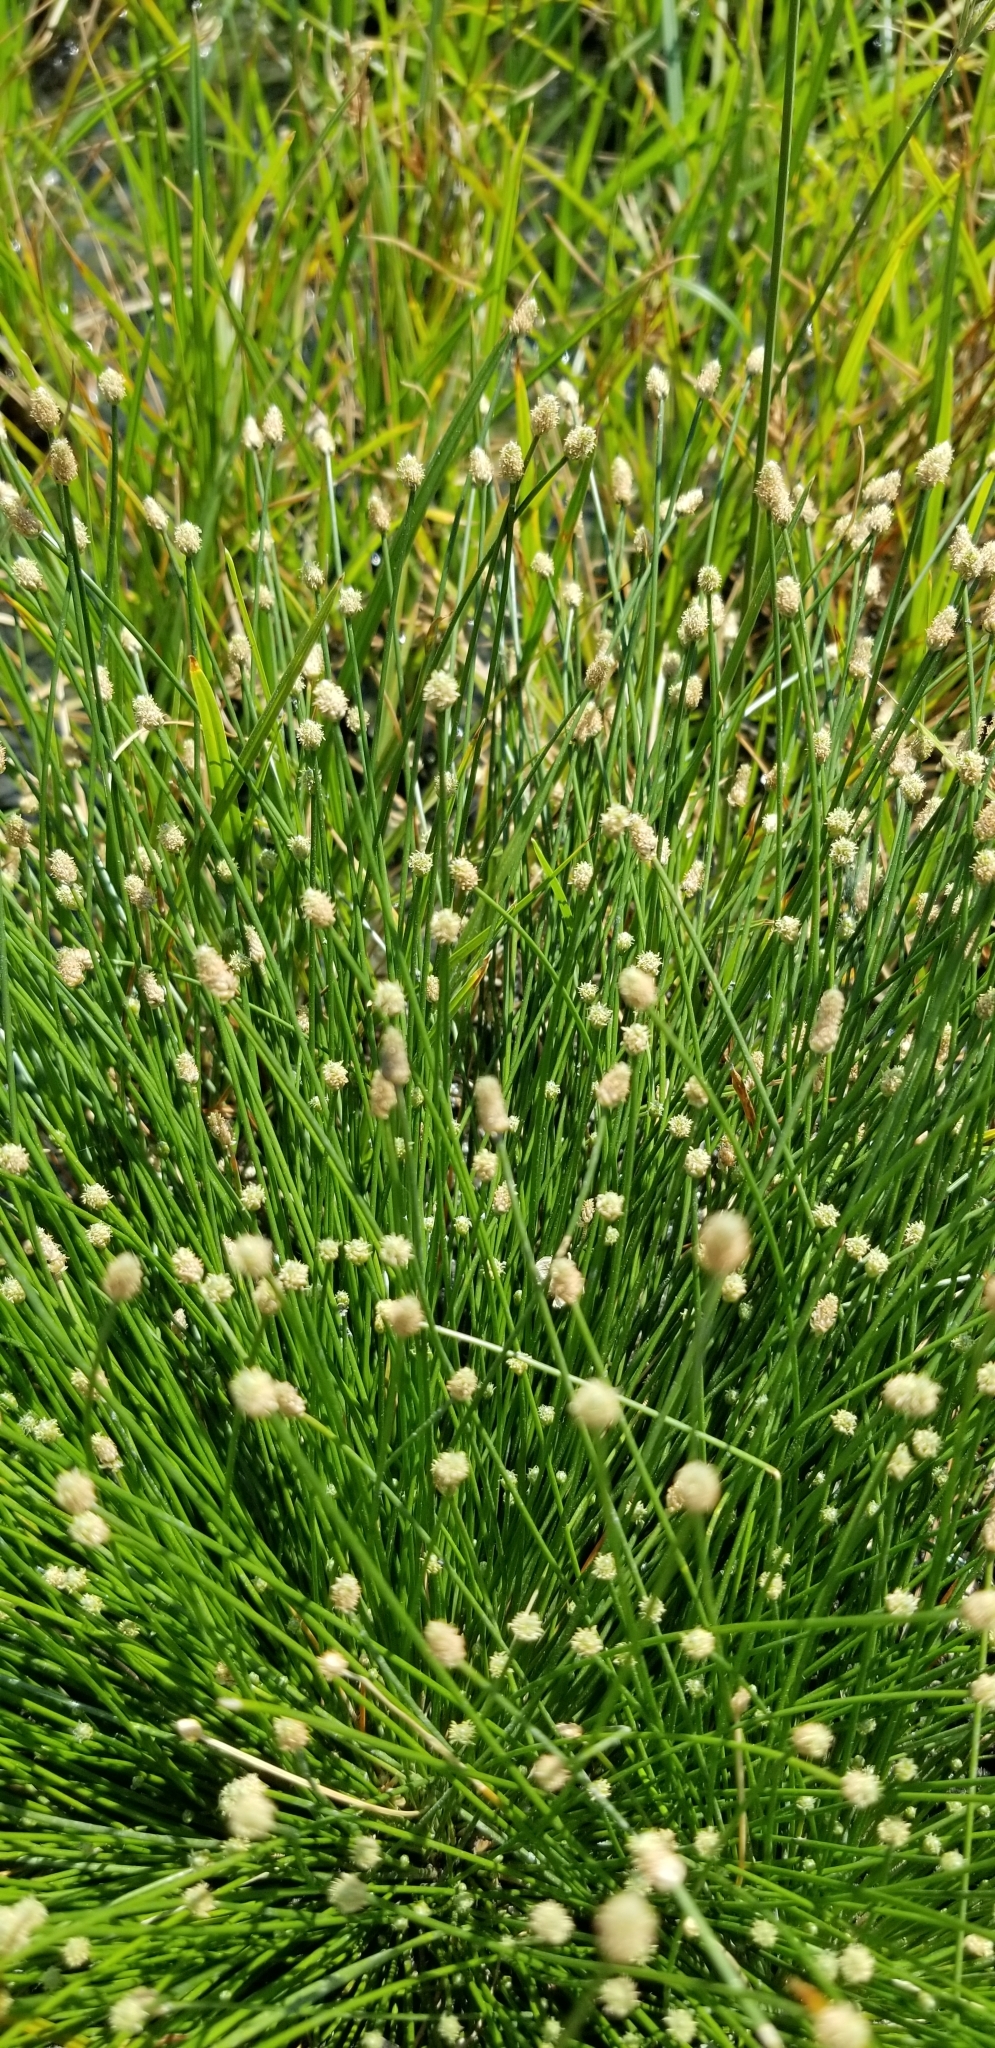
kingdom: Plantae
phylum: Tracheophyta
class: Liliopsida
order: Poales
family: Cyperaceae
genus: Eleocharis
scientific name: Eleocharis geniculata
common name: Canada spikesedge
